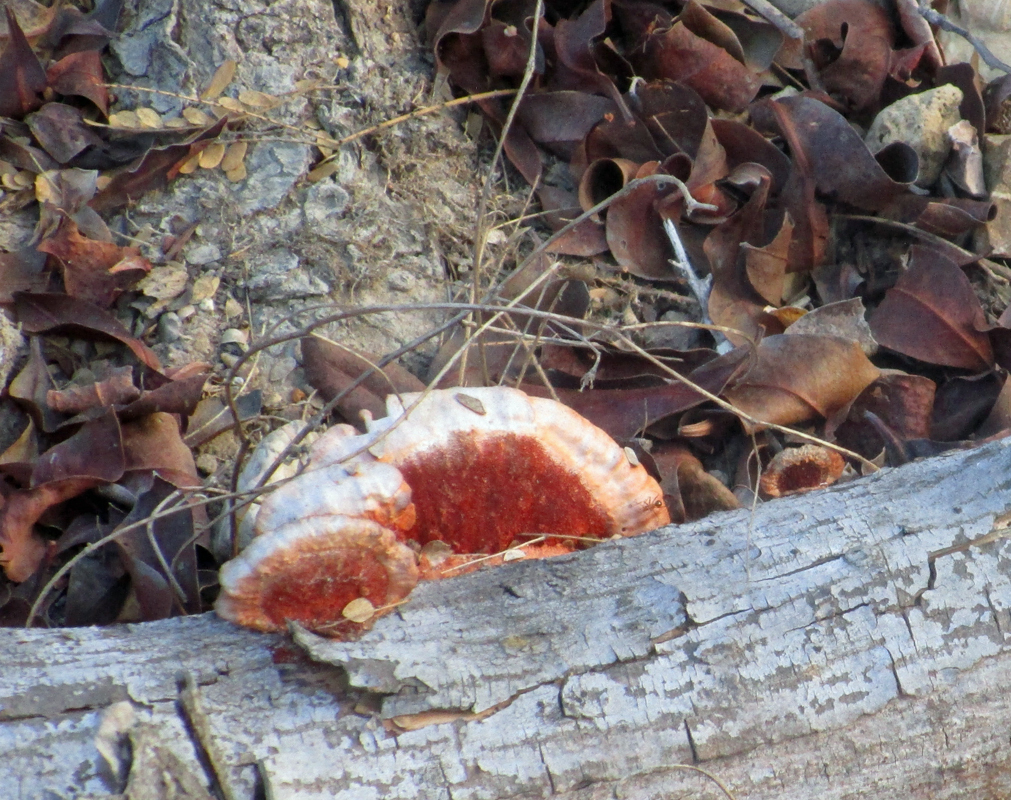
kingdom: Fungi
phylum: Basidiomycota
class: Agaricomycetes
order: Polyporales
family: Polyporaceae
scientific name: Polyporaceae
